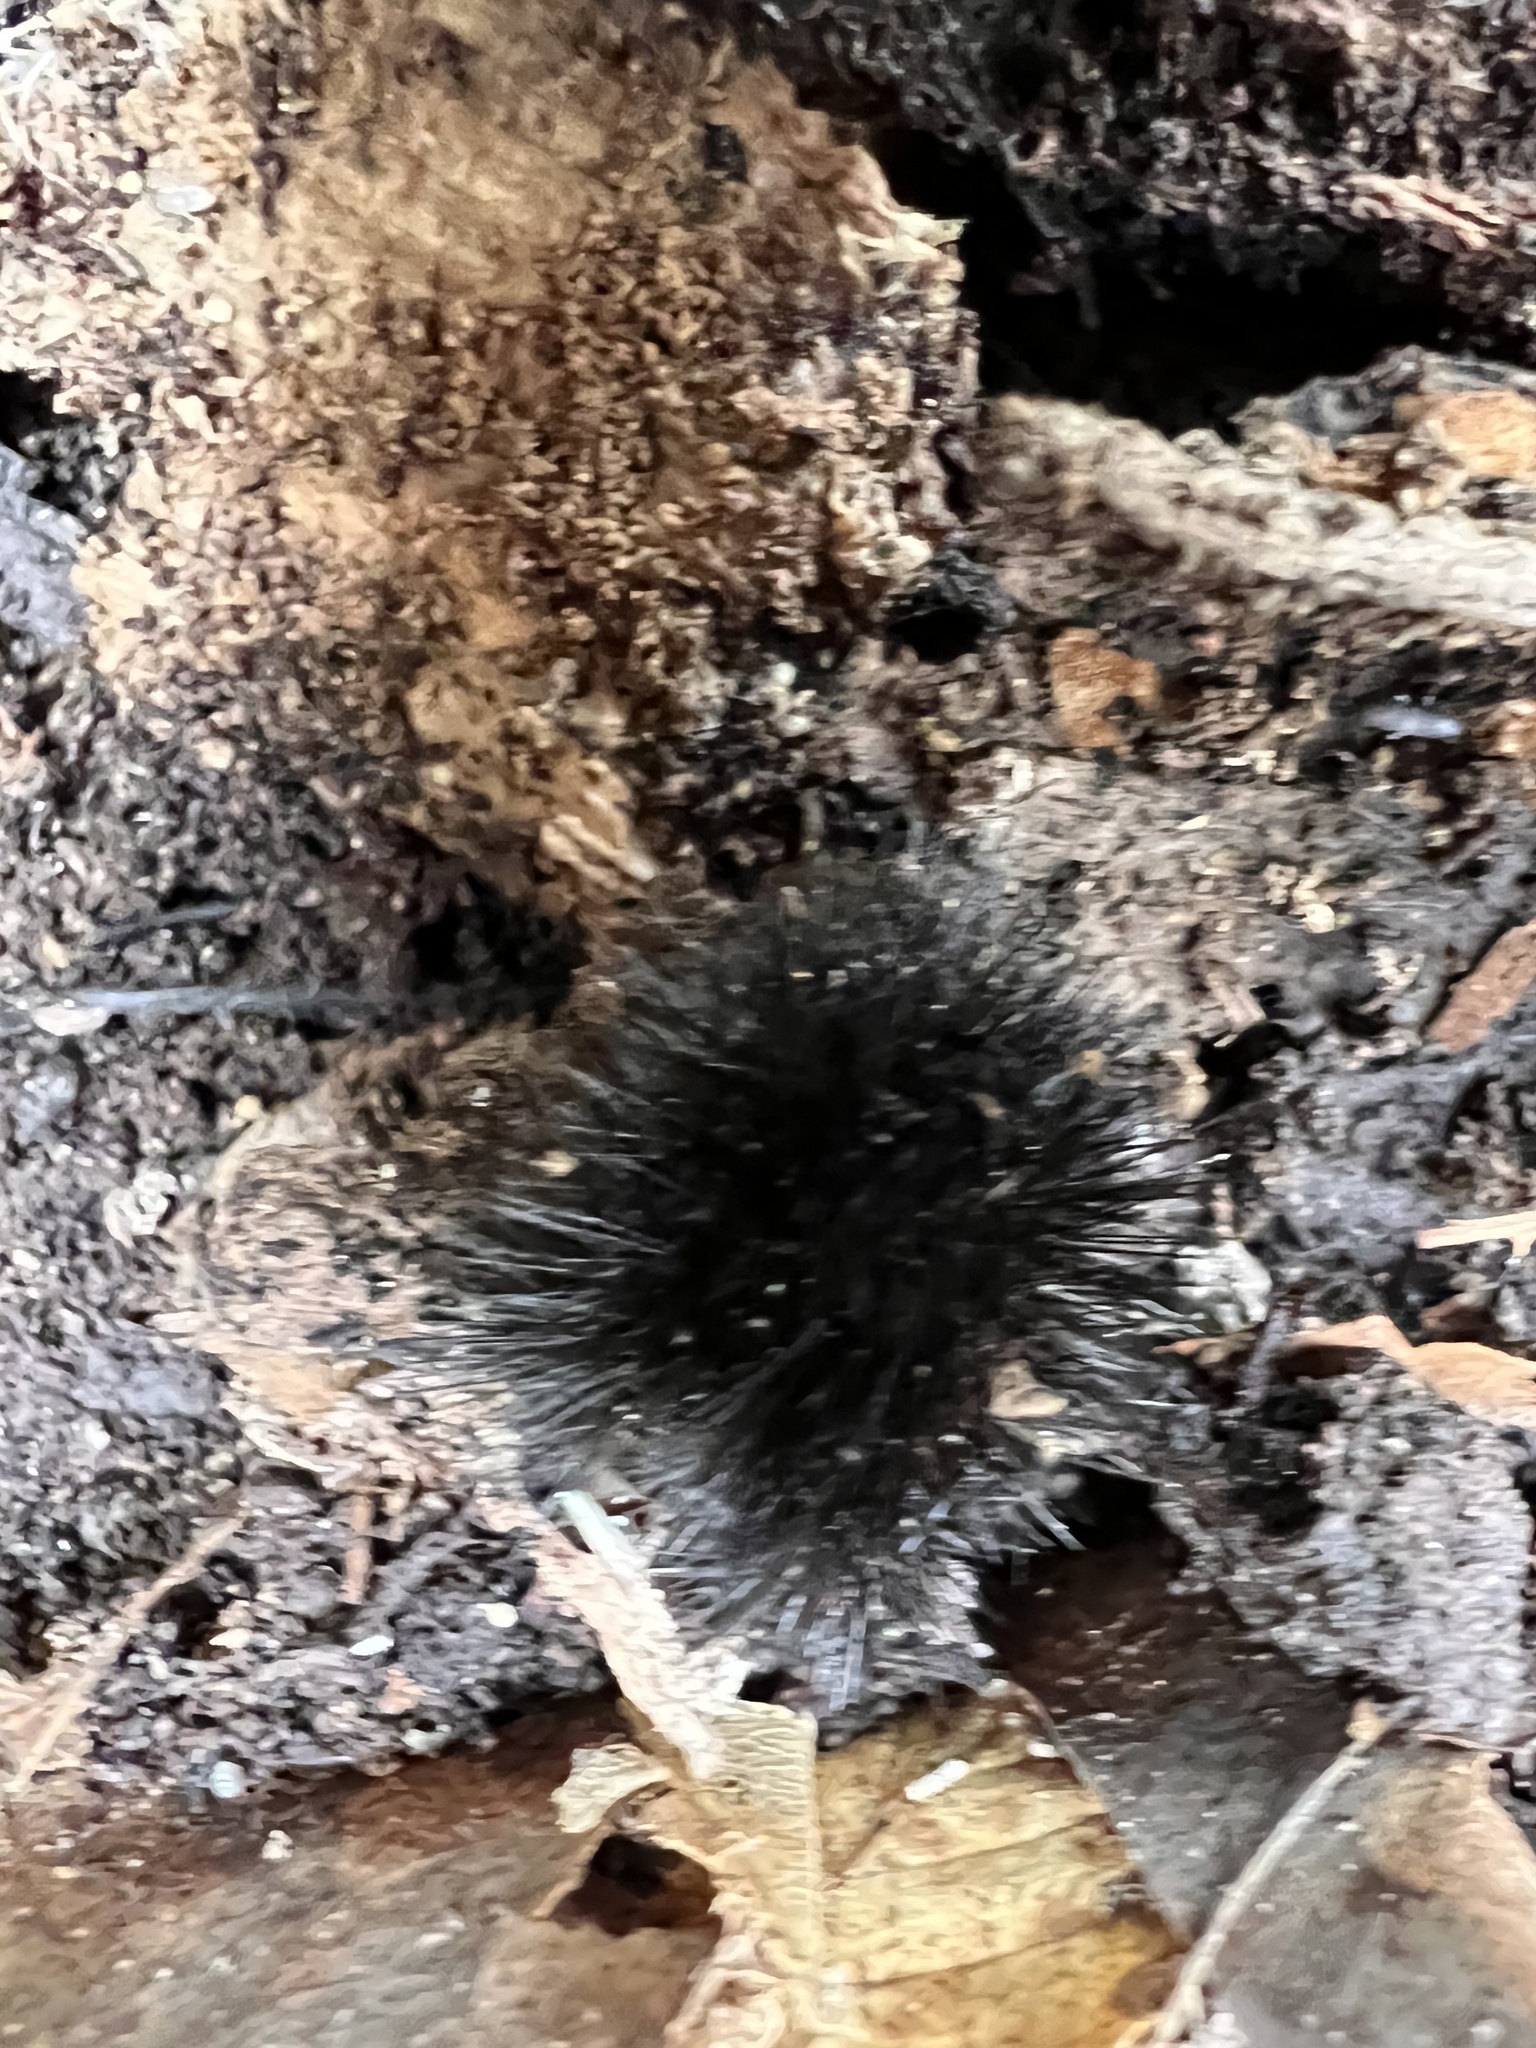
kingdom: Animalia
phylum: Arthropoda
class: Insecta
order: Lepidoptera
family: Erebidae
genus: Hypercompe
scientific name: Hypercompe scribonia
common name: Giant leopard moth
